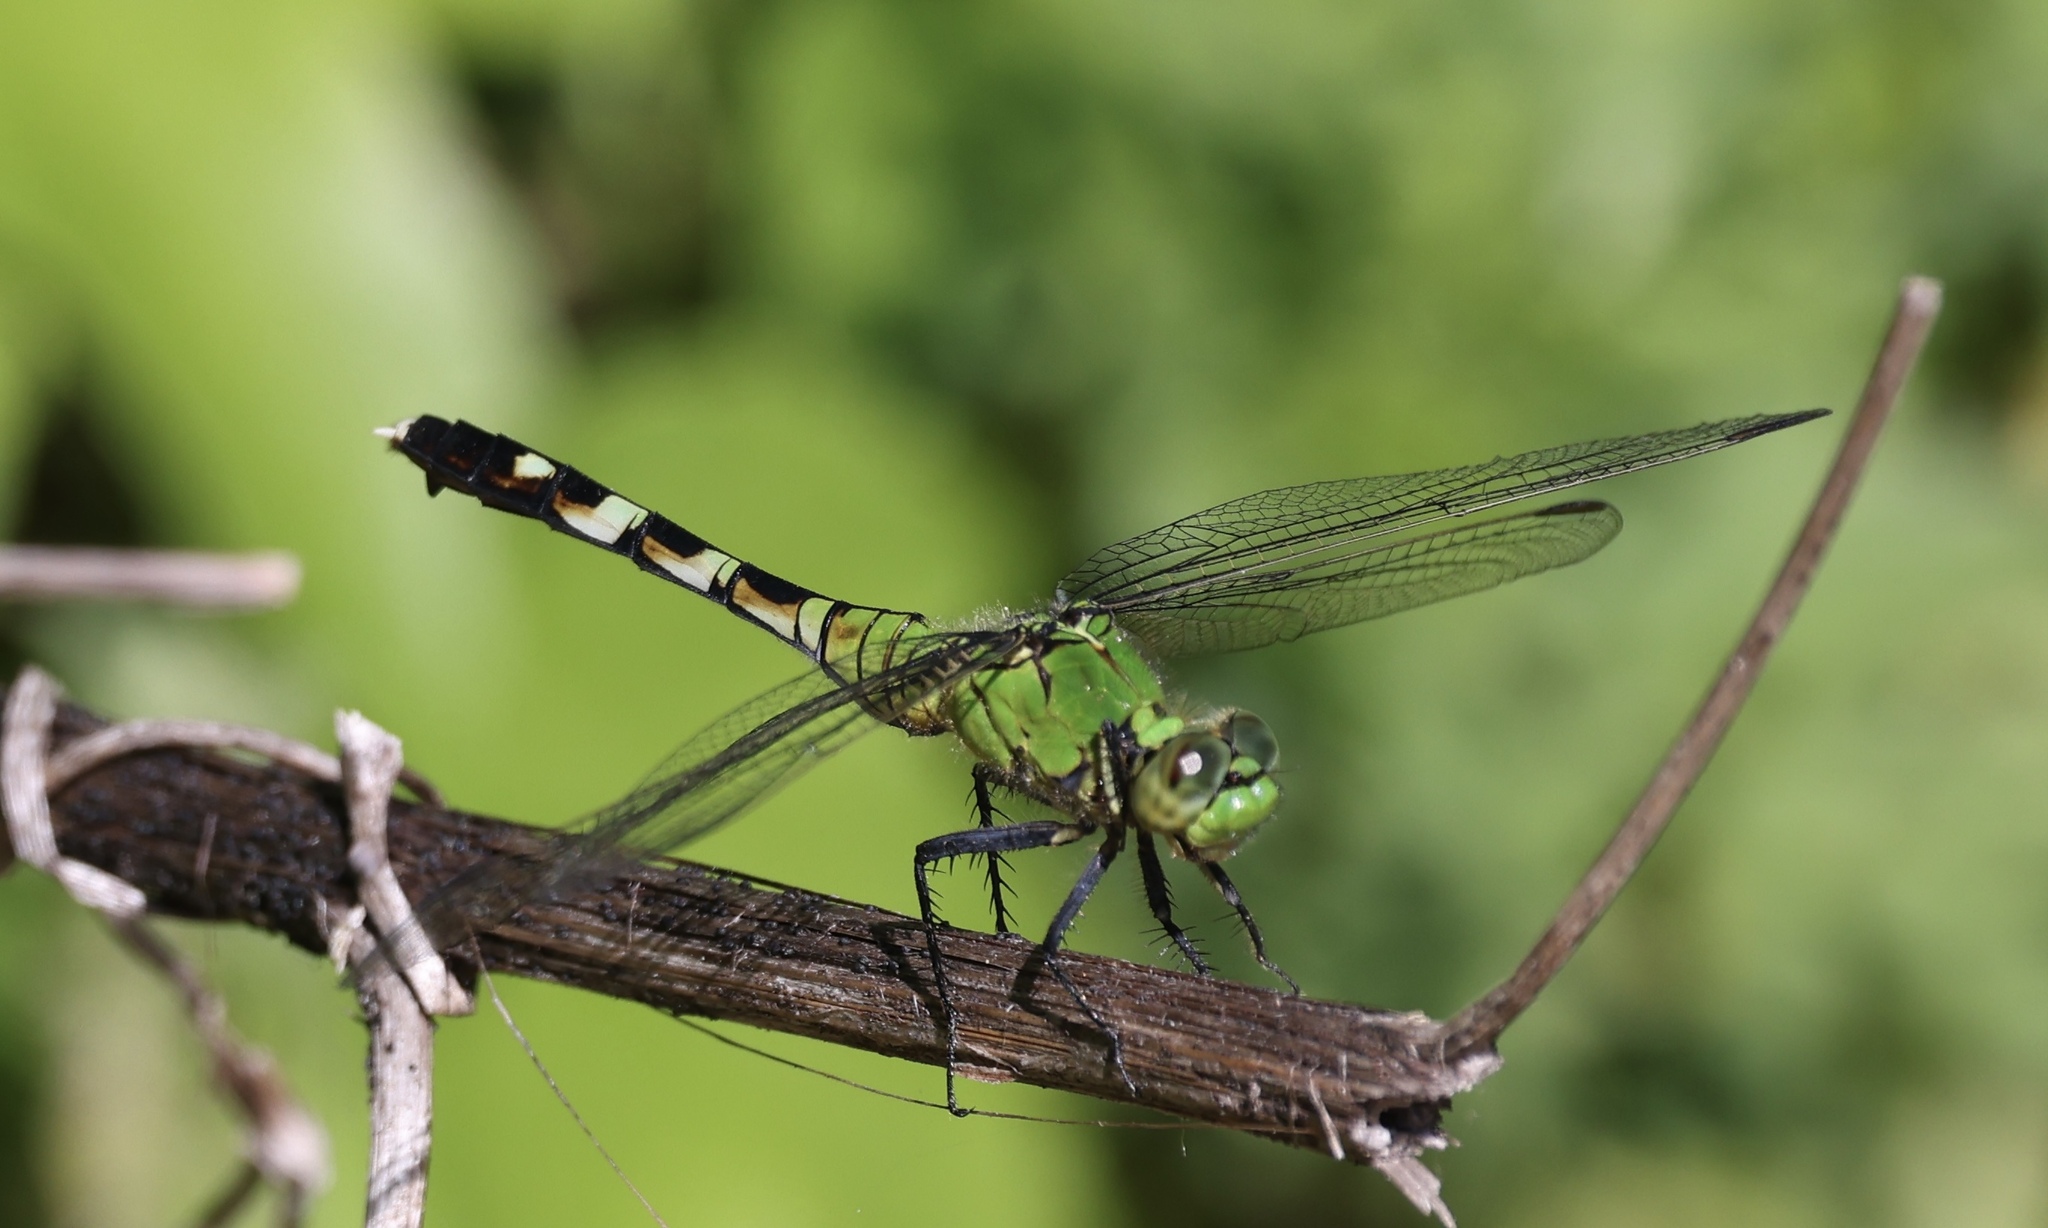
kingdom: Animalia
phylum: Arthropoda
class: Insecta
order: Odonata
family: Libellulidae
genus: Erythemis
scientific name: Erythemis simplicicollis
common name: Eastern pondhawk
